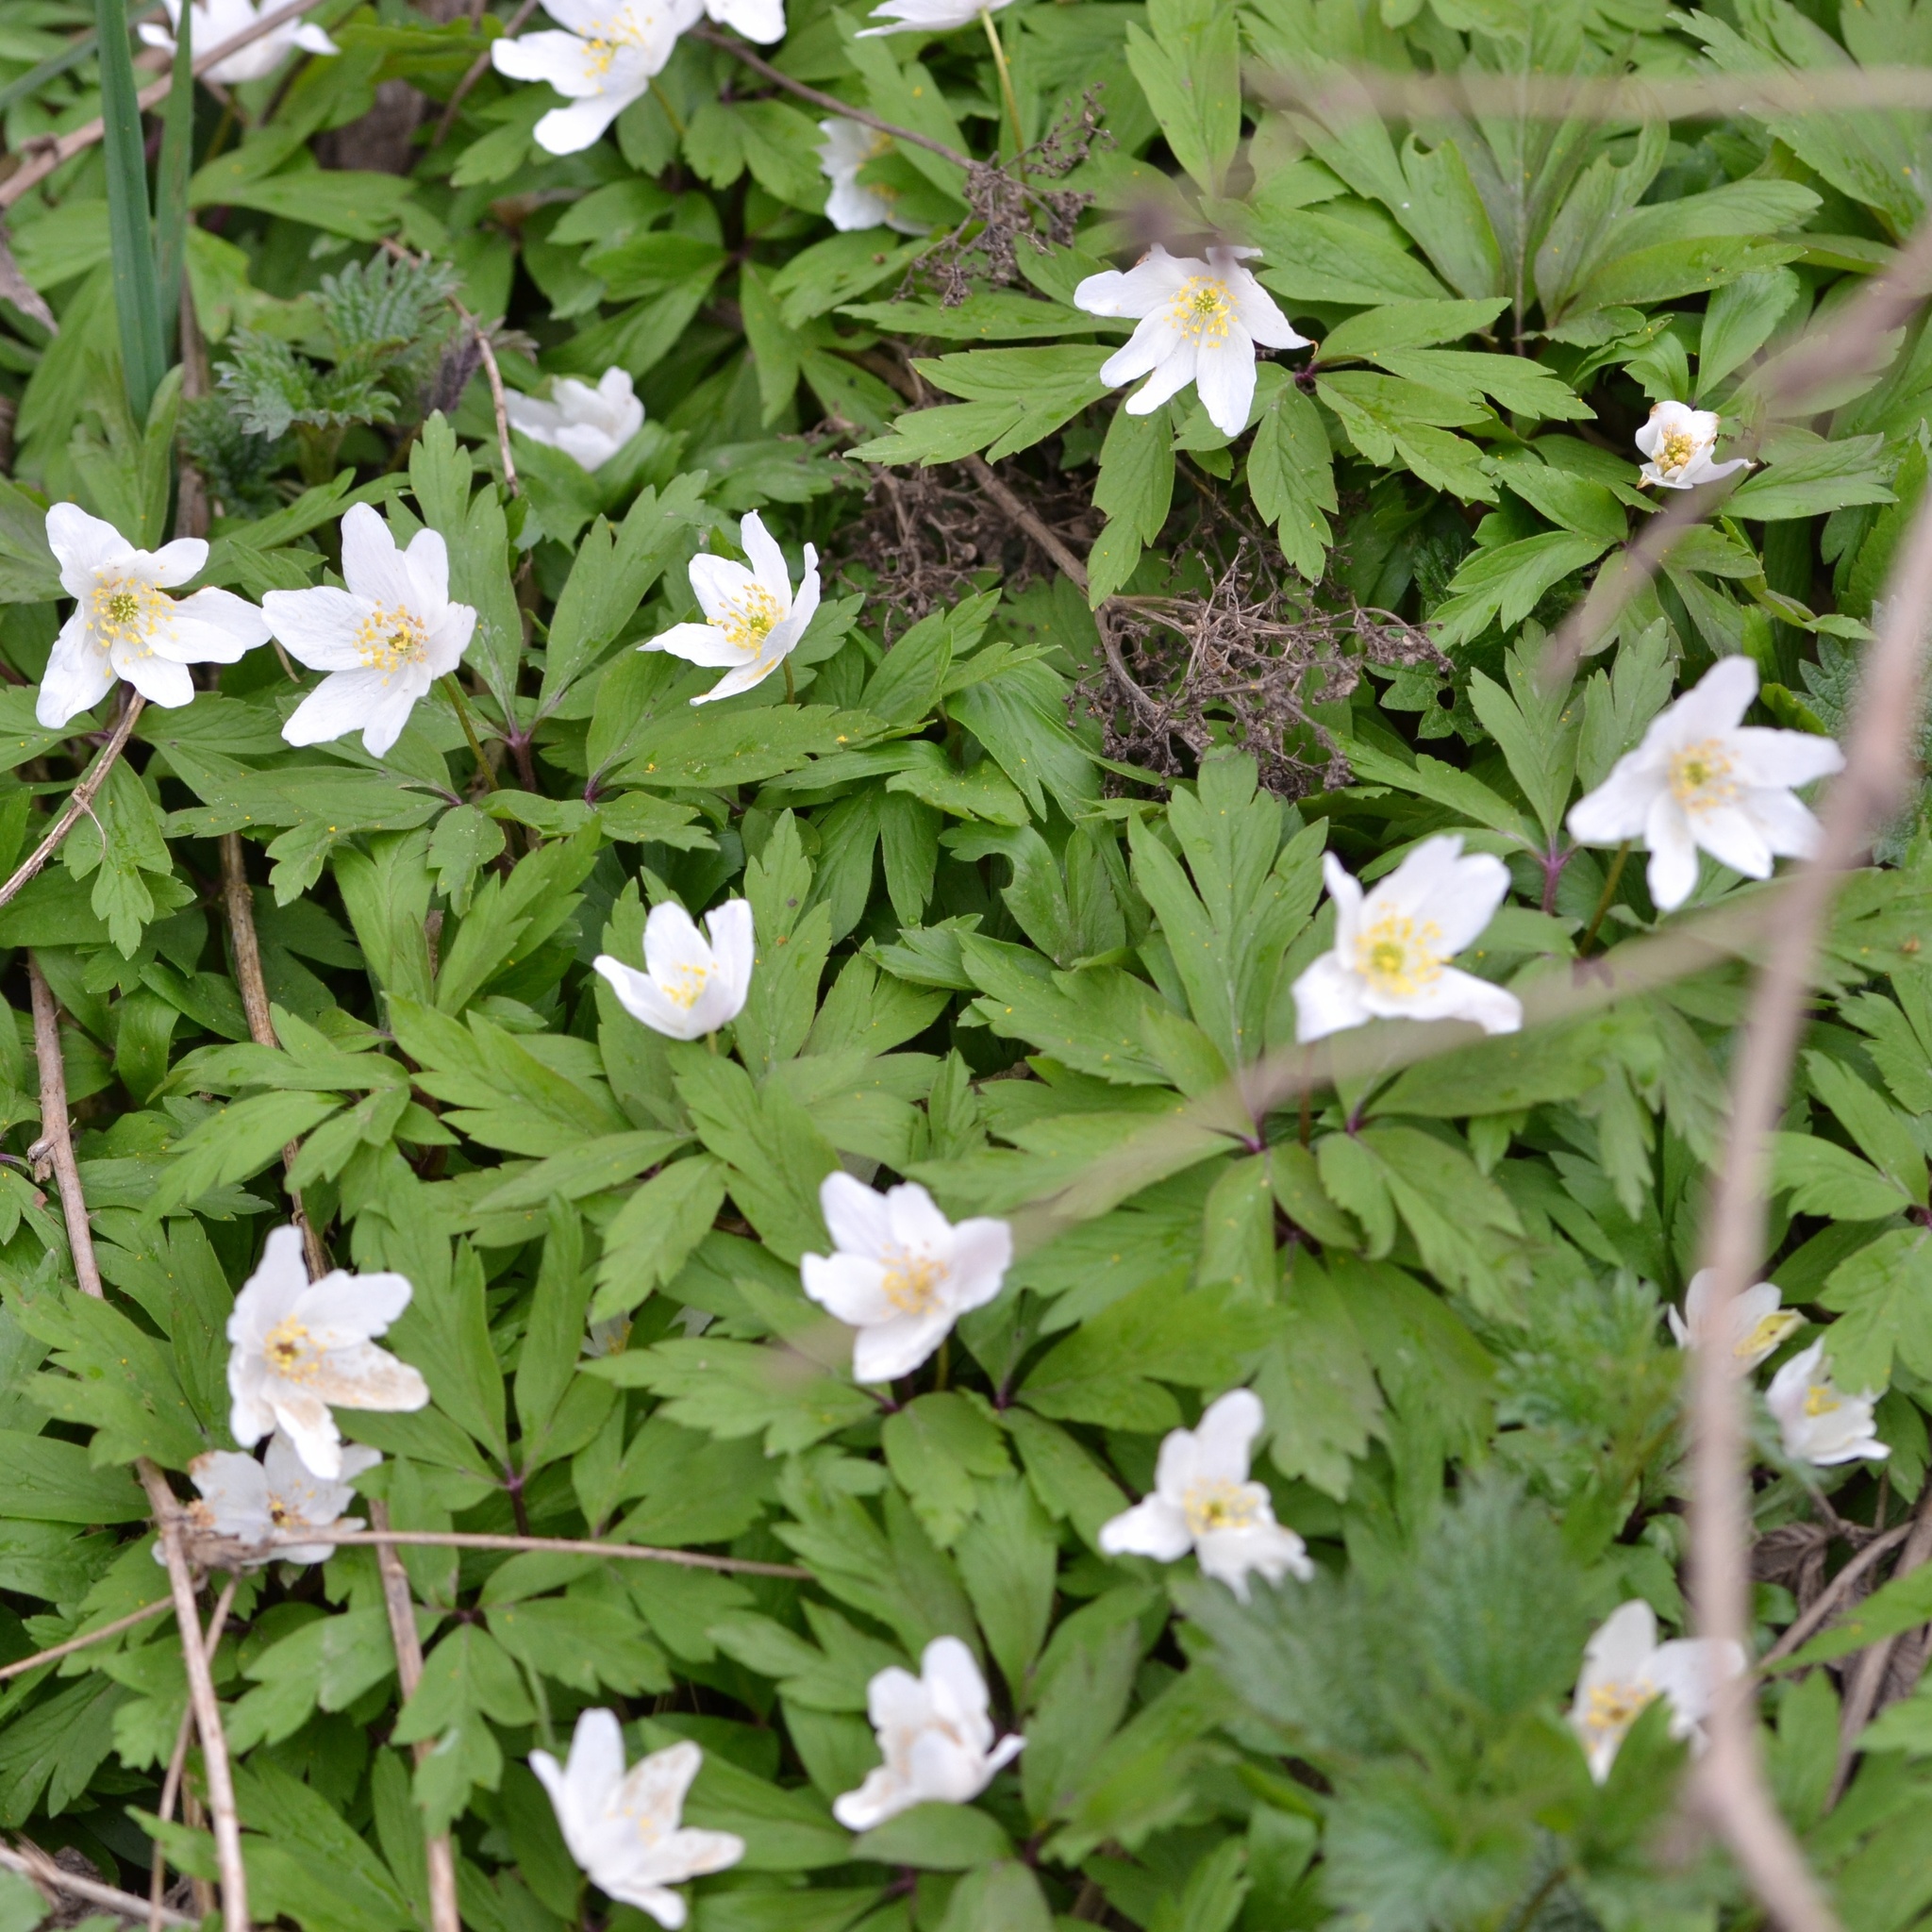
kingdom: Plantae
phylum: Tracheophyta
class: Magnoliopsida
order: Ranunculales
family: Ranunculaceae
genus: Anemone
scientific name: Anemone nemorosa
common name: Wood anemone
